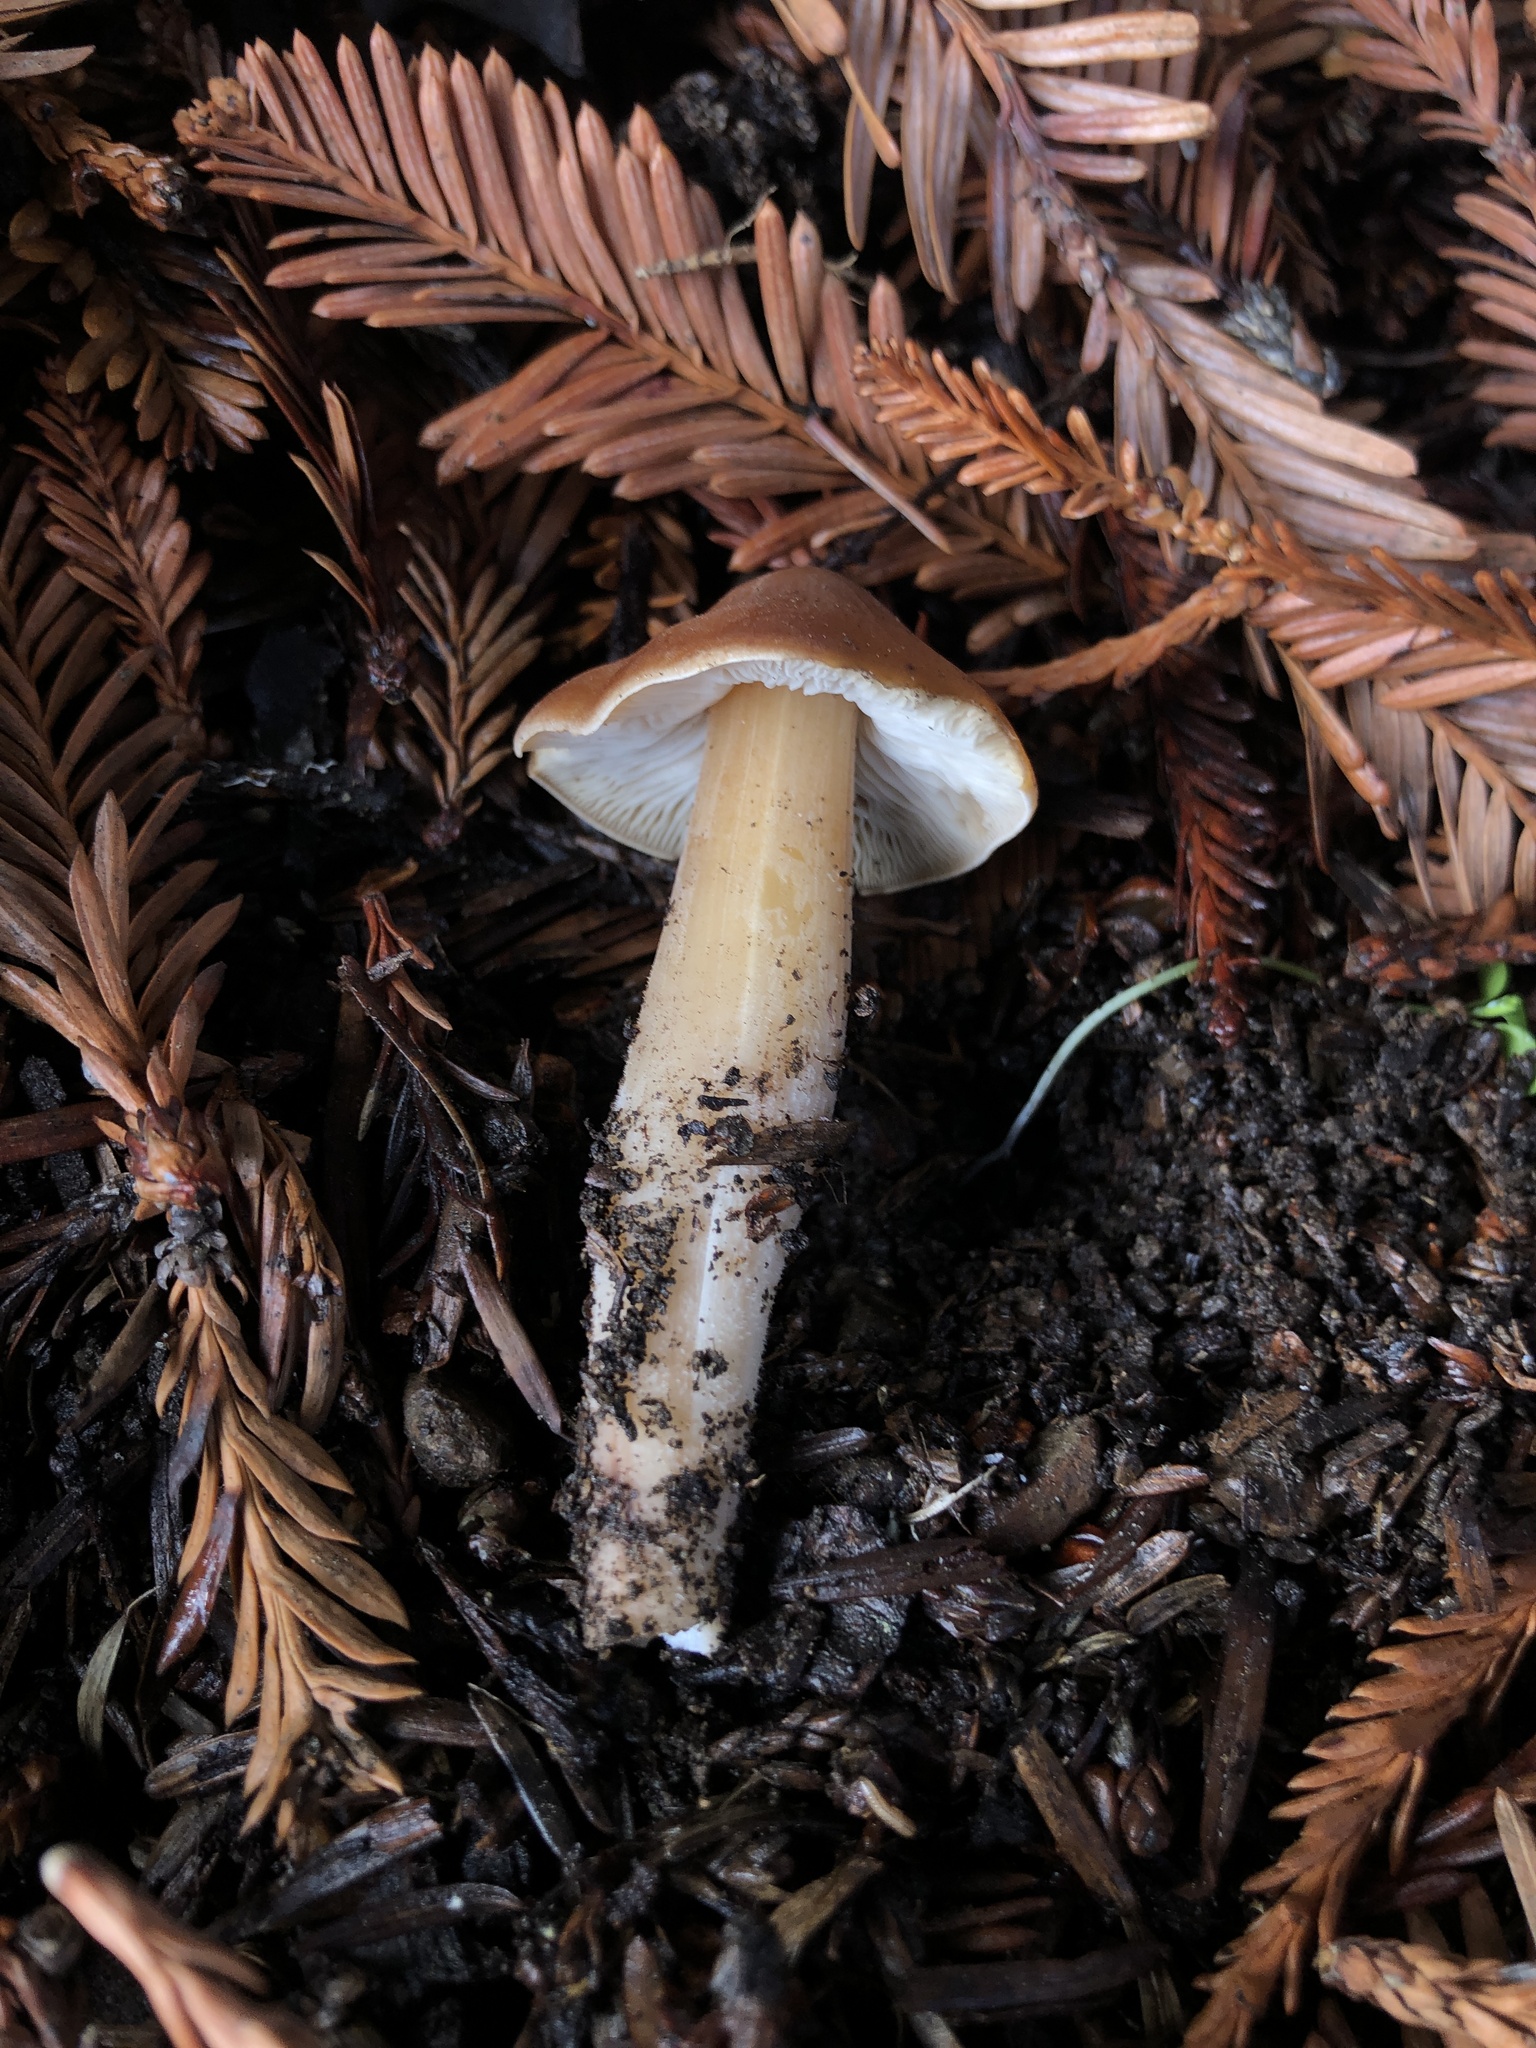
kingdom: Fungi
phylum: Basidiomycota
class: Agaricomycetes
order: Agaricales
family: Tricholomataceae
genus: Caulorhiza
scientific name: Caulorhiza umbonata
